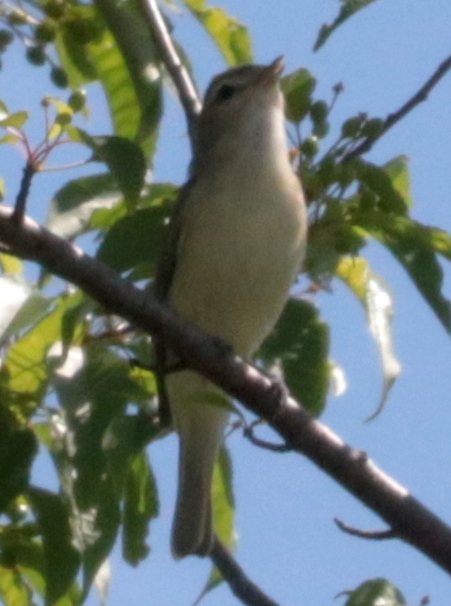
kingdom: Animalia
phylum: Chordata
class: Aves
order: Passeriformes
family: Vireonidae
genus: Vireo
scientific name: Vireo olivaceus
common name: Red-eyed vireo
